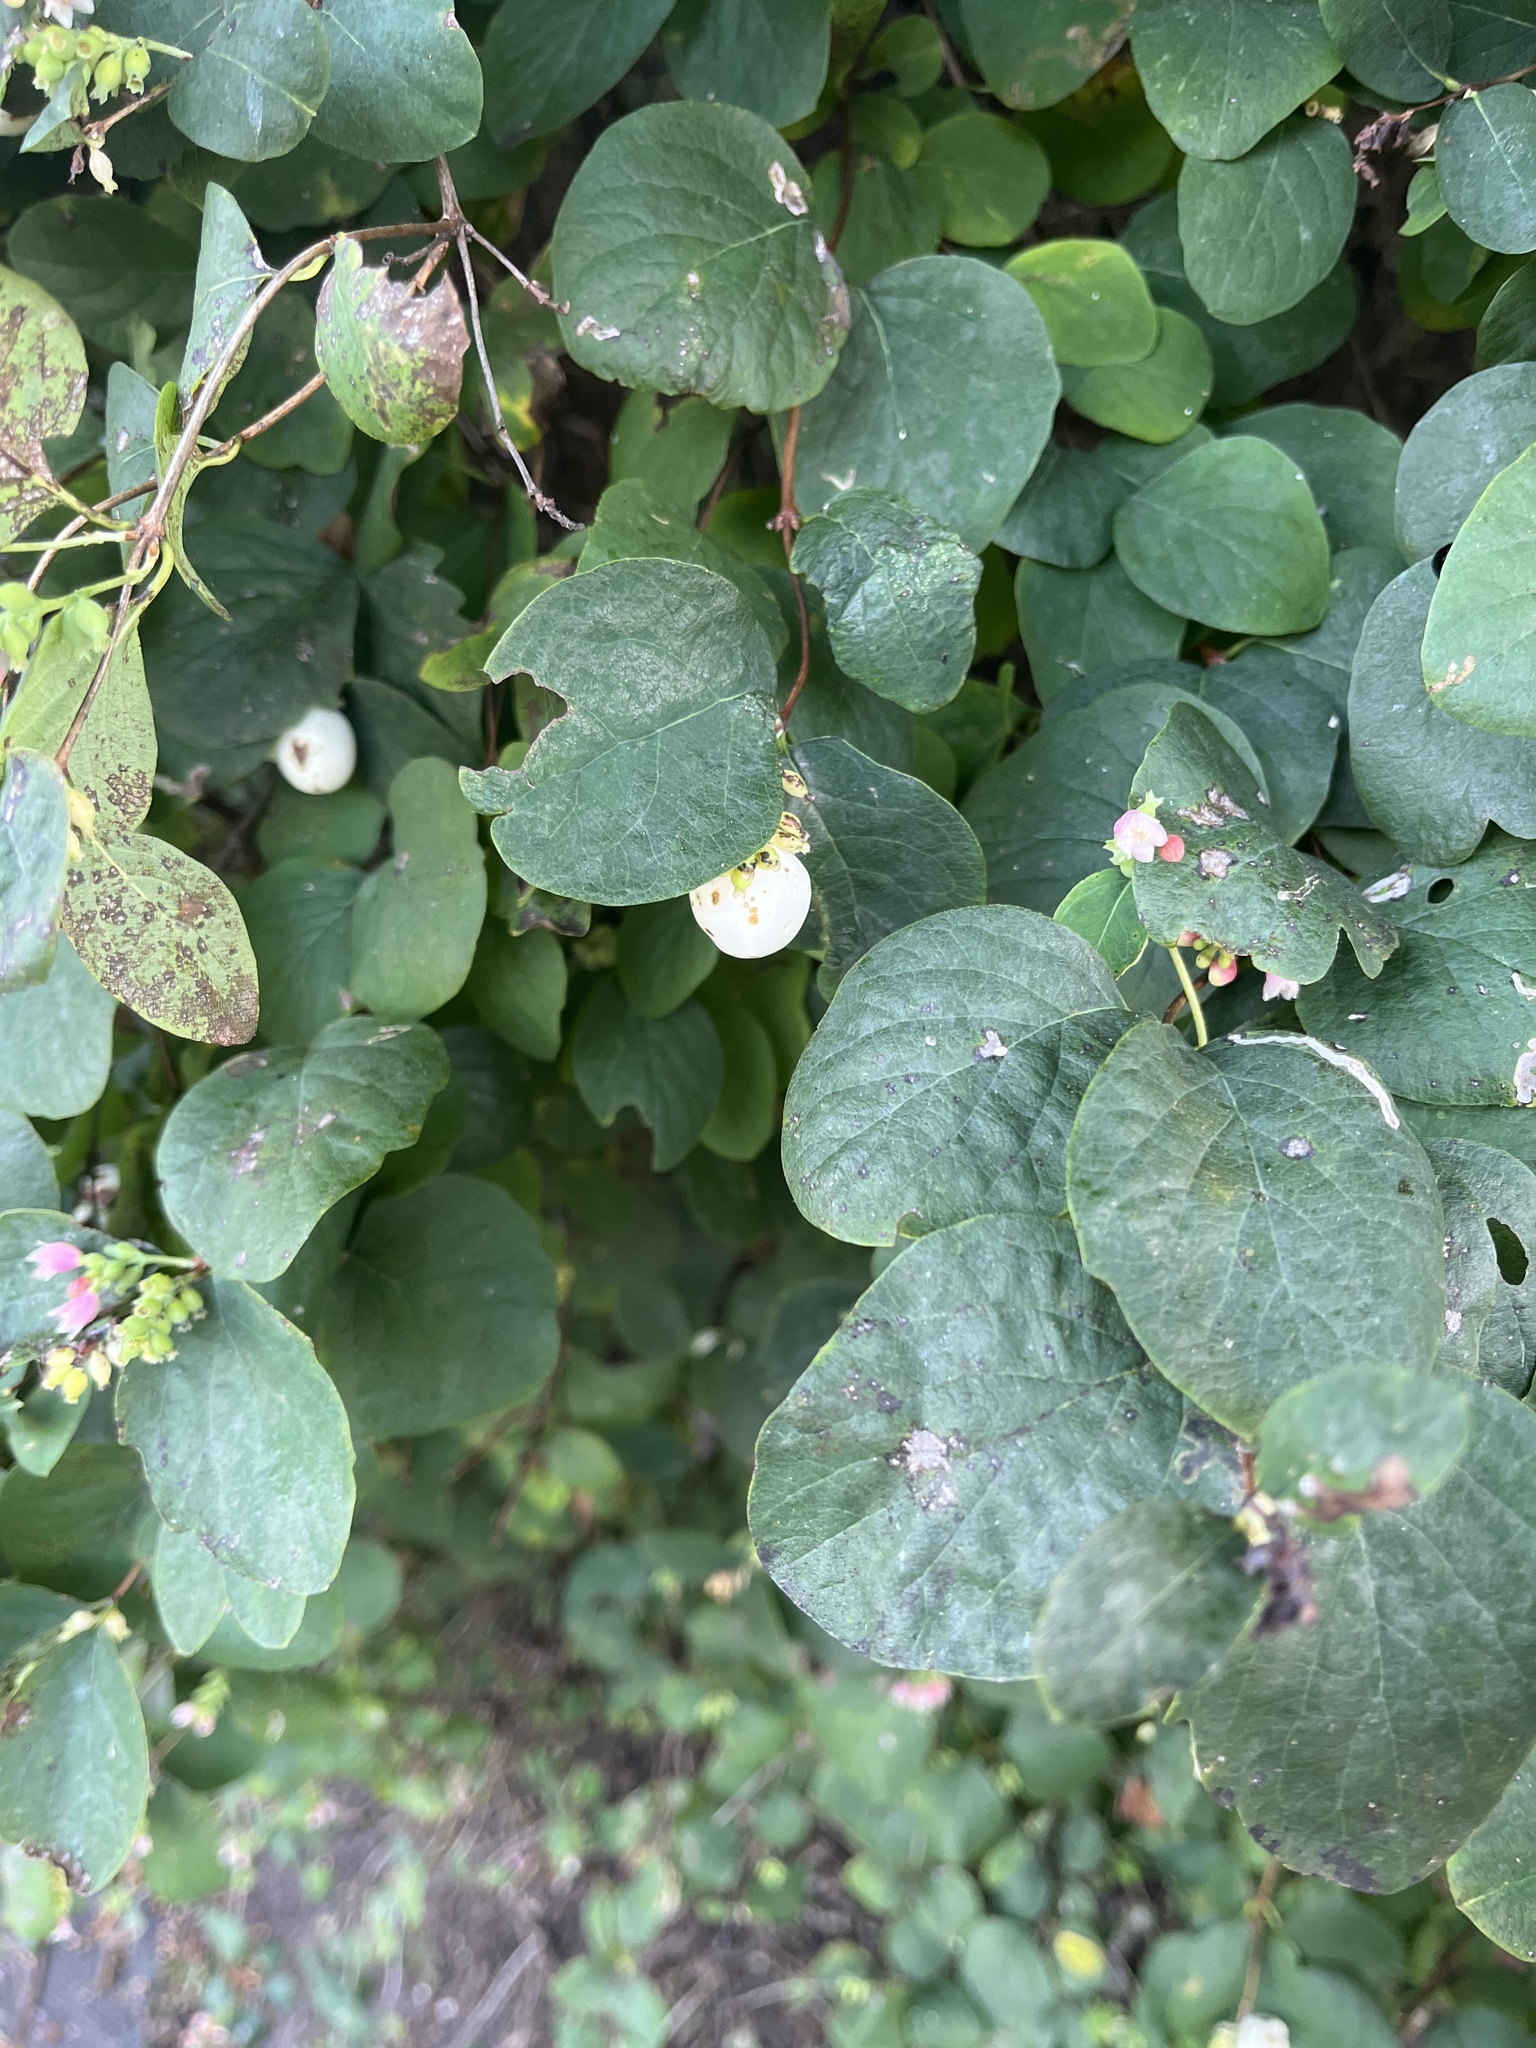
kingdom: Plantae
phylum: Tracheophyta
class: Magnoliopsida
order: Dipsacales
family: Caprifoliaceae
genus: Symphoricarpos
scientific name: Symphoricarpos albus
